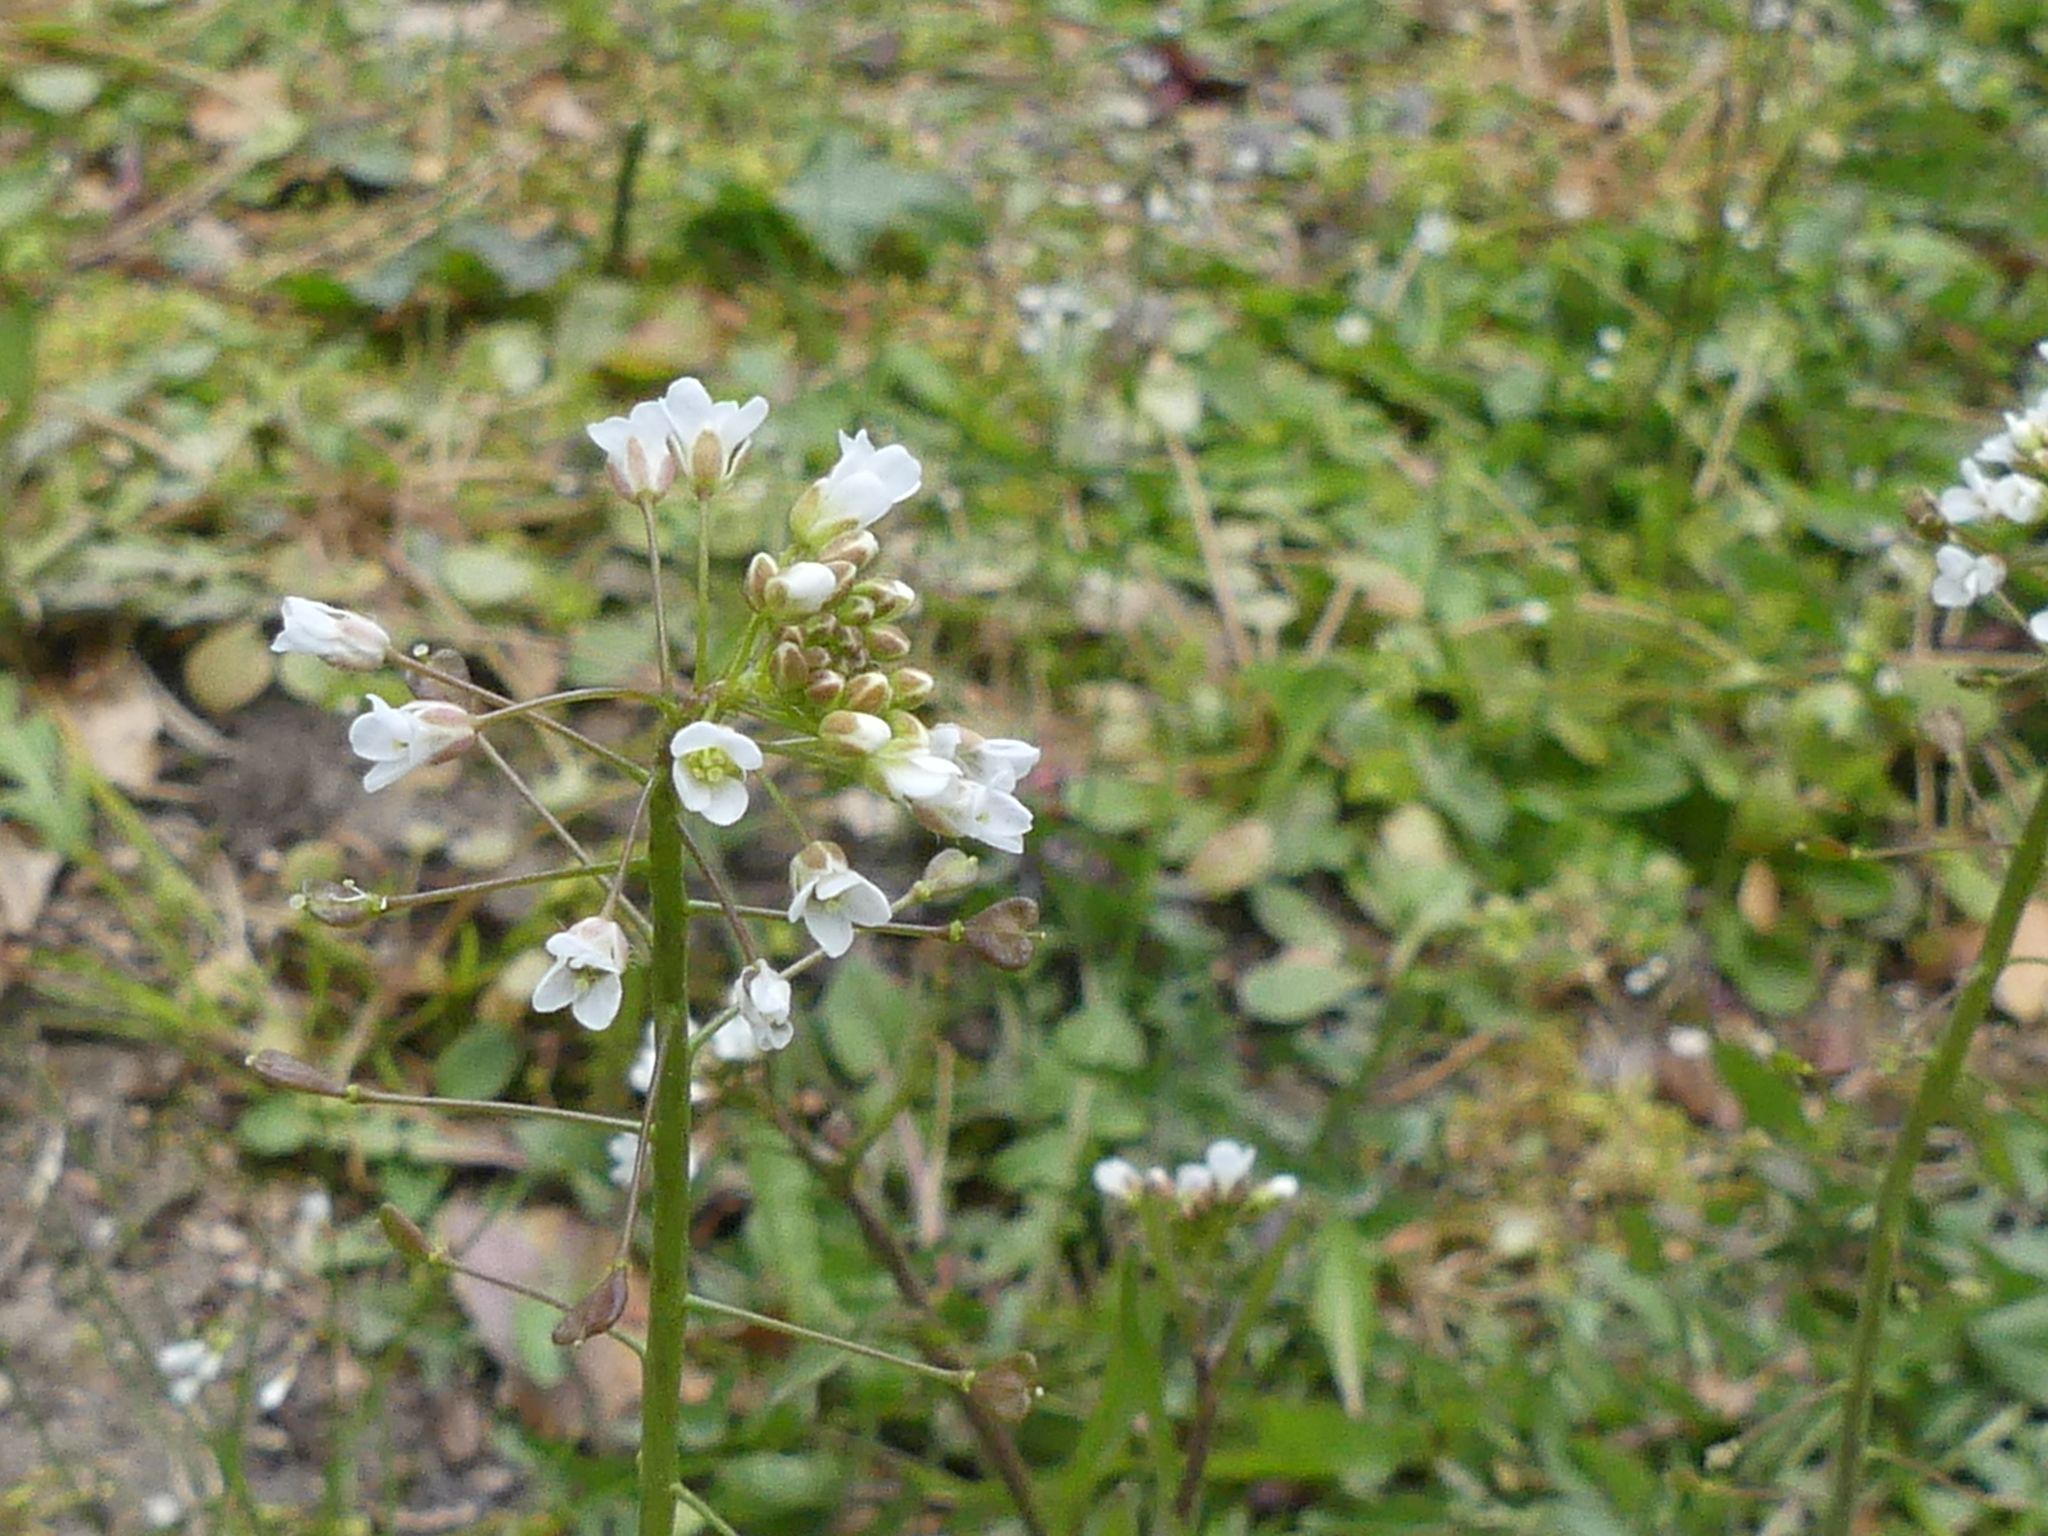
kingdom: Plantae
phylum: Tracheophyta
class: Magnoliopsida
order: Brassicales
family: Brassicaceae
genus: Capsella
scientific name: Capsella bursa-pastoris
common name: Shepherd's purse
